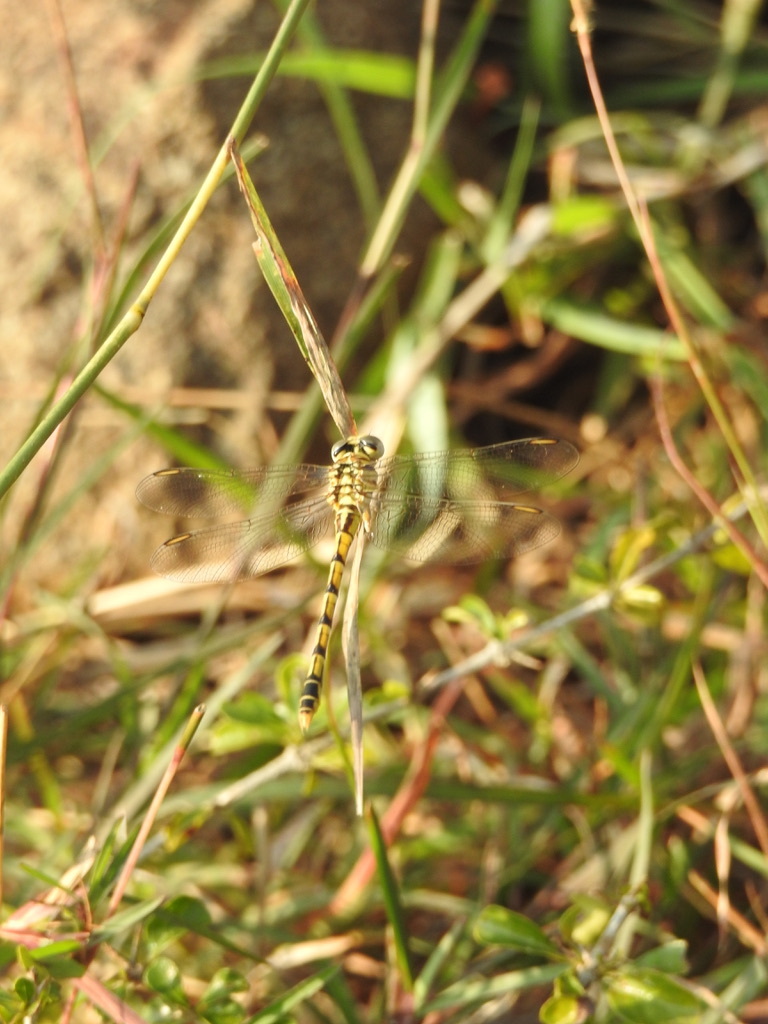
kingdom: Animalia
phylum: Arthropoda
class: Insecta
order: Odonata
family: Gomphidae
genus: Paragomphus
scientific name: Paragomphus lineatus
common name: Lined hooktail
